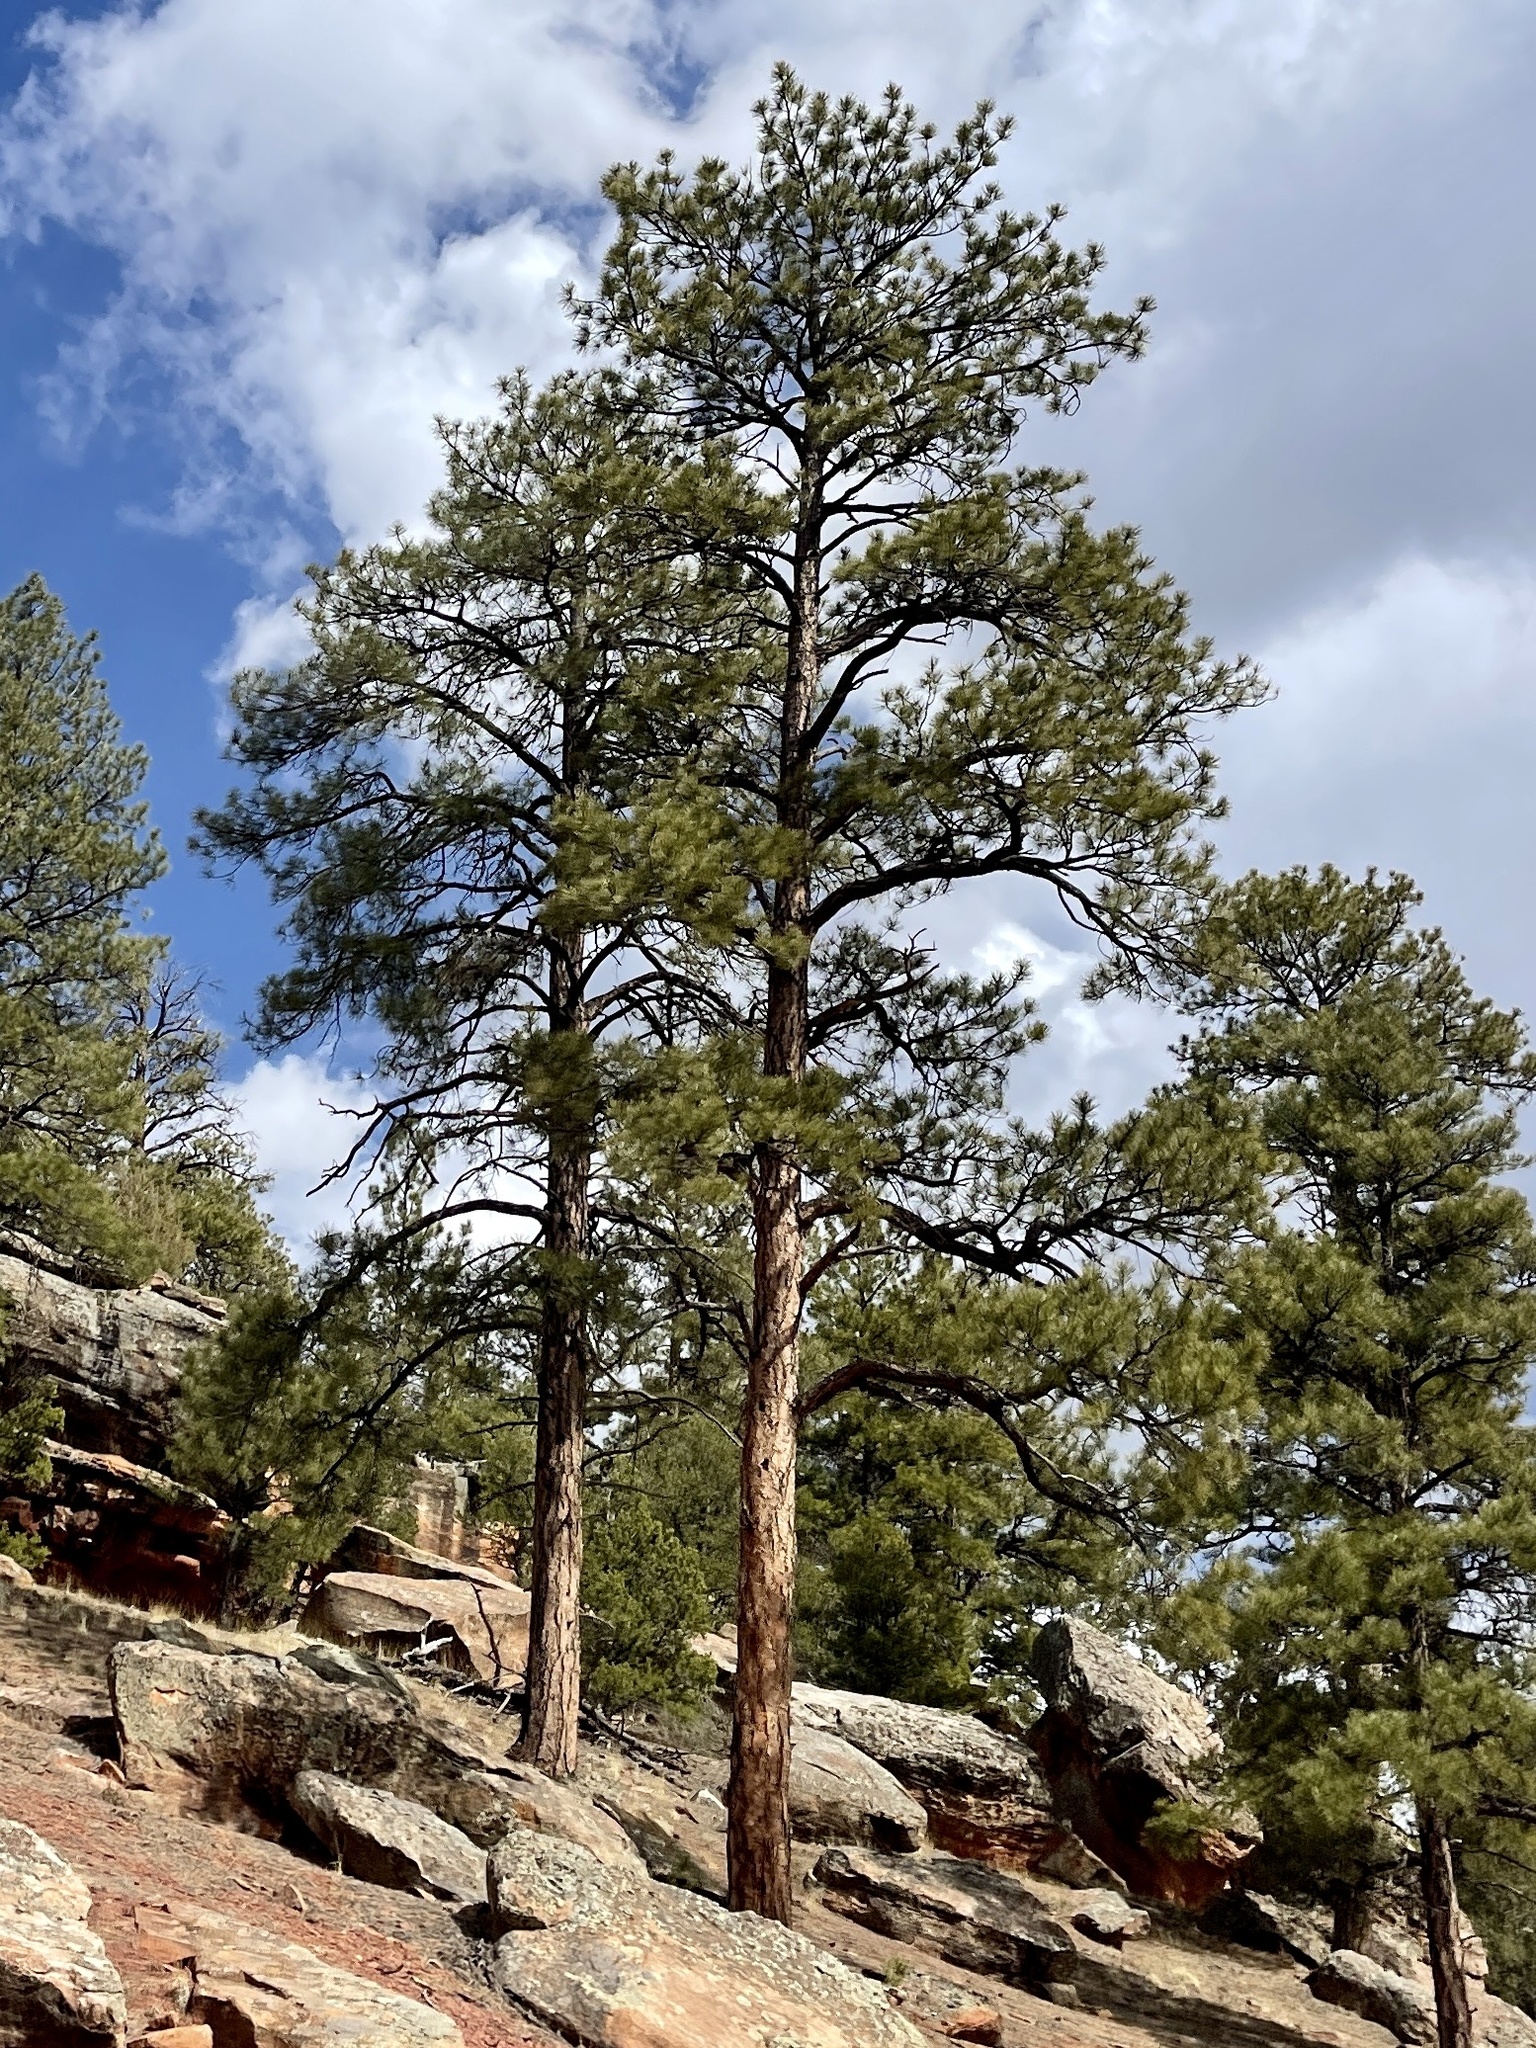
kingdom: Plantae
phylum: Tracheophyta
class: Pinopsida
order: Pinales
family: Pinaceae
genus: Pinus
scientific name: Pinus ponderosa
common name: Western yellow-pine
